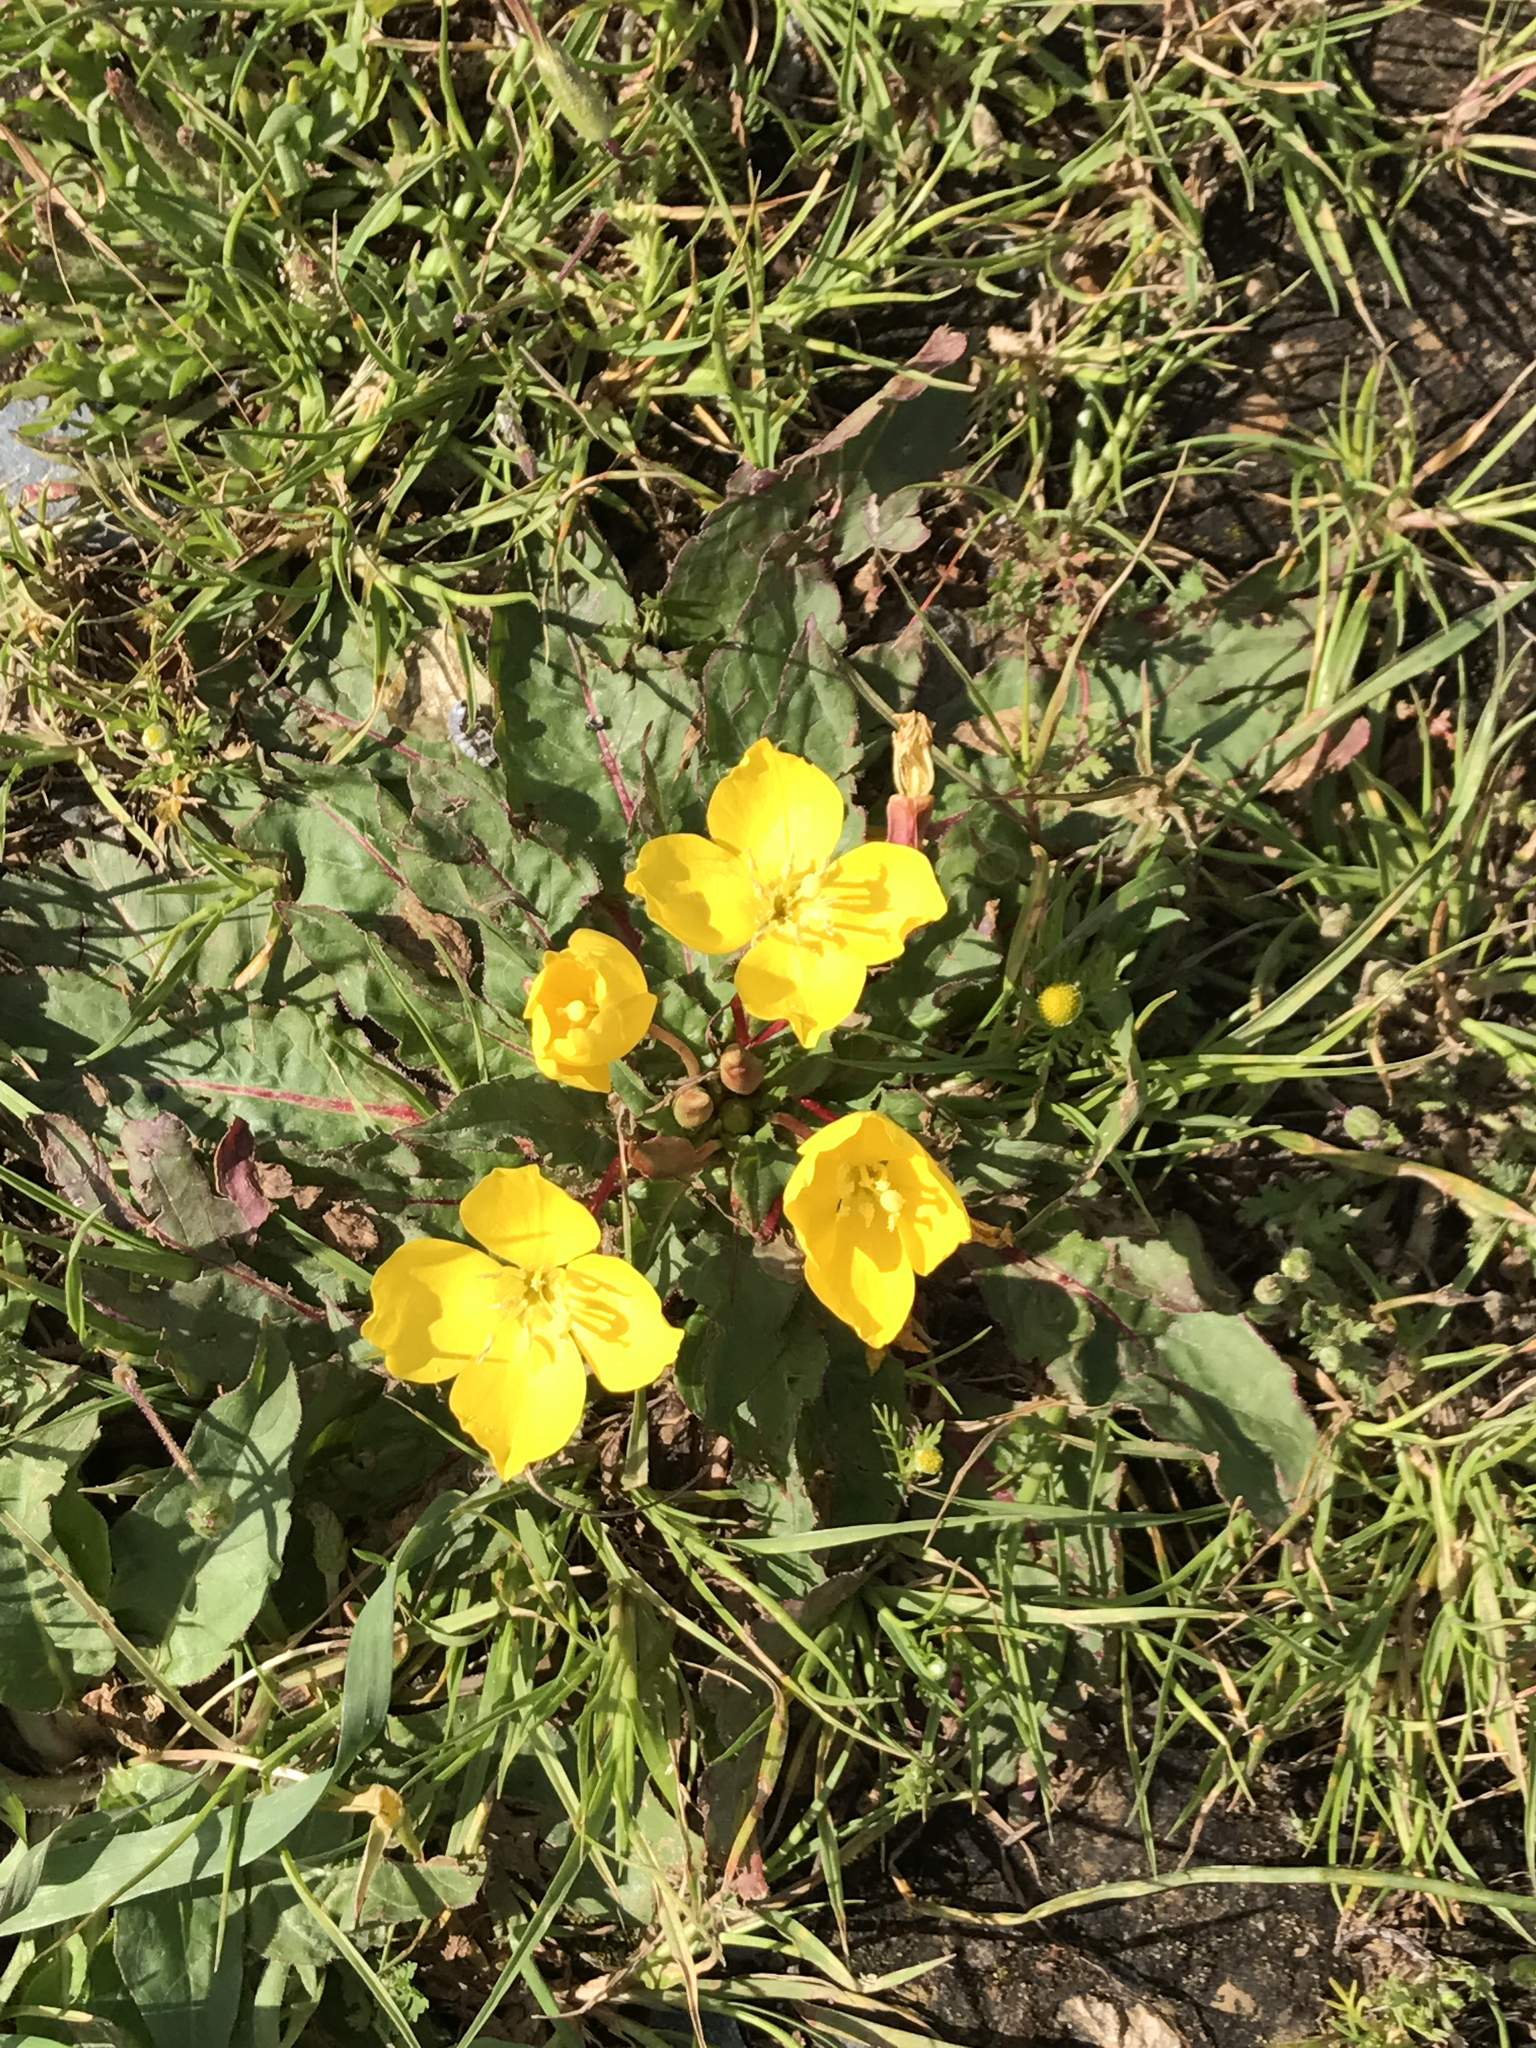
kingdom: Plantae
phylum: Tracheophyta
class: Magnoliopsida
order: Myrtales
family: Onagraceae
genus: Taraxia
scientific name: Taraxia ovata
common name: Goldeneggs
